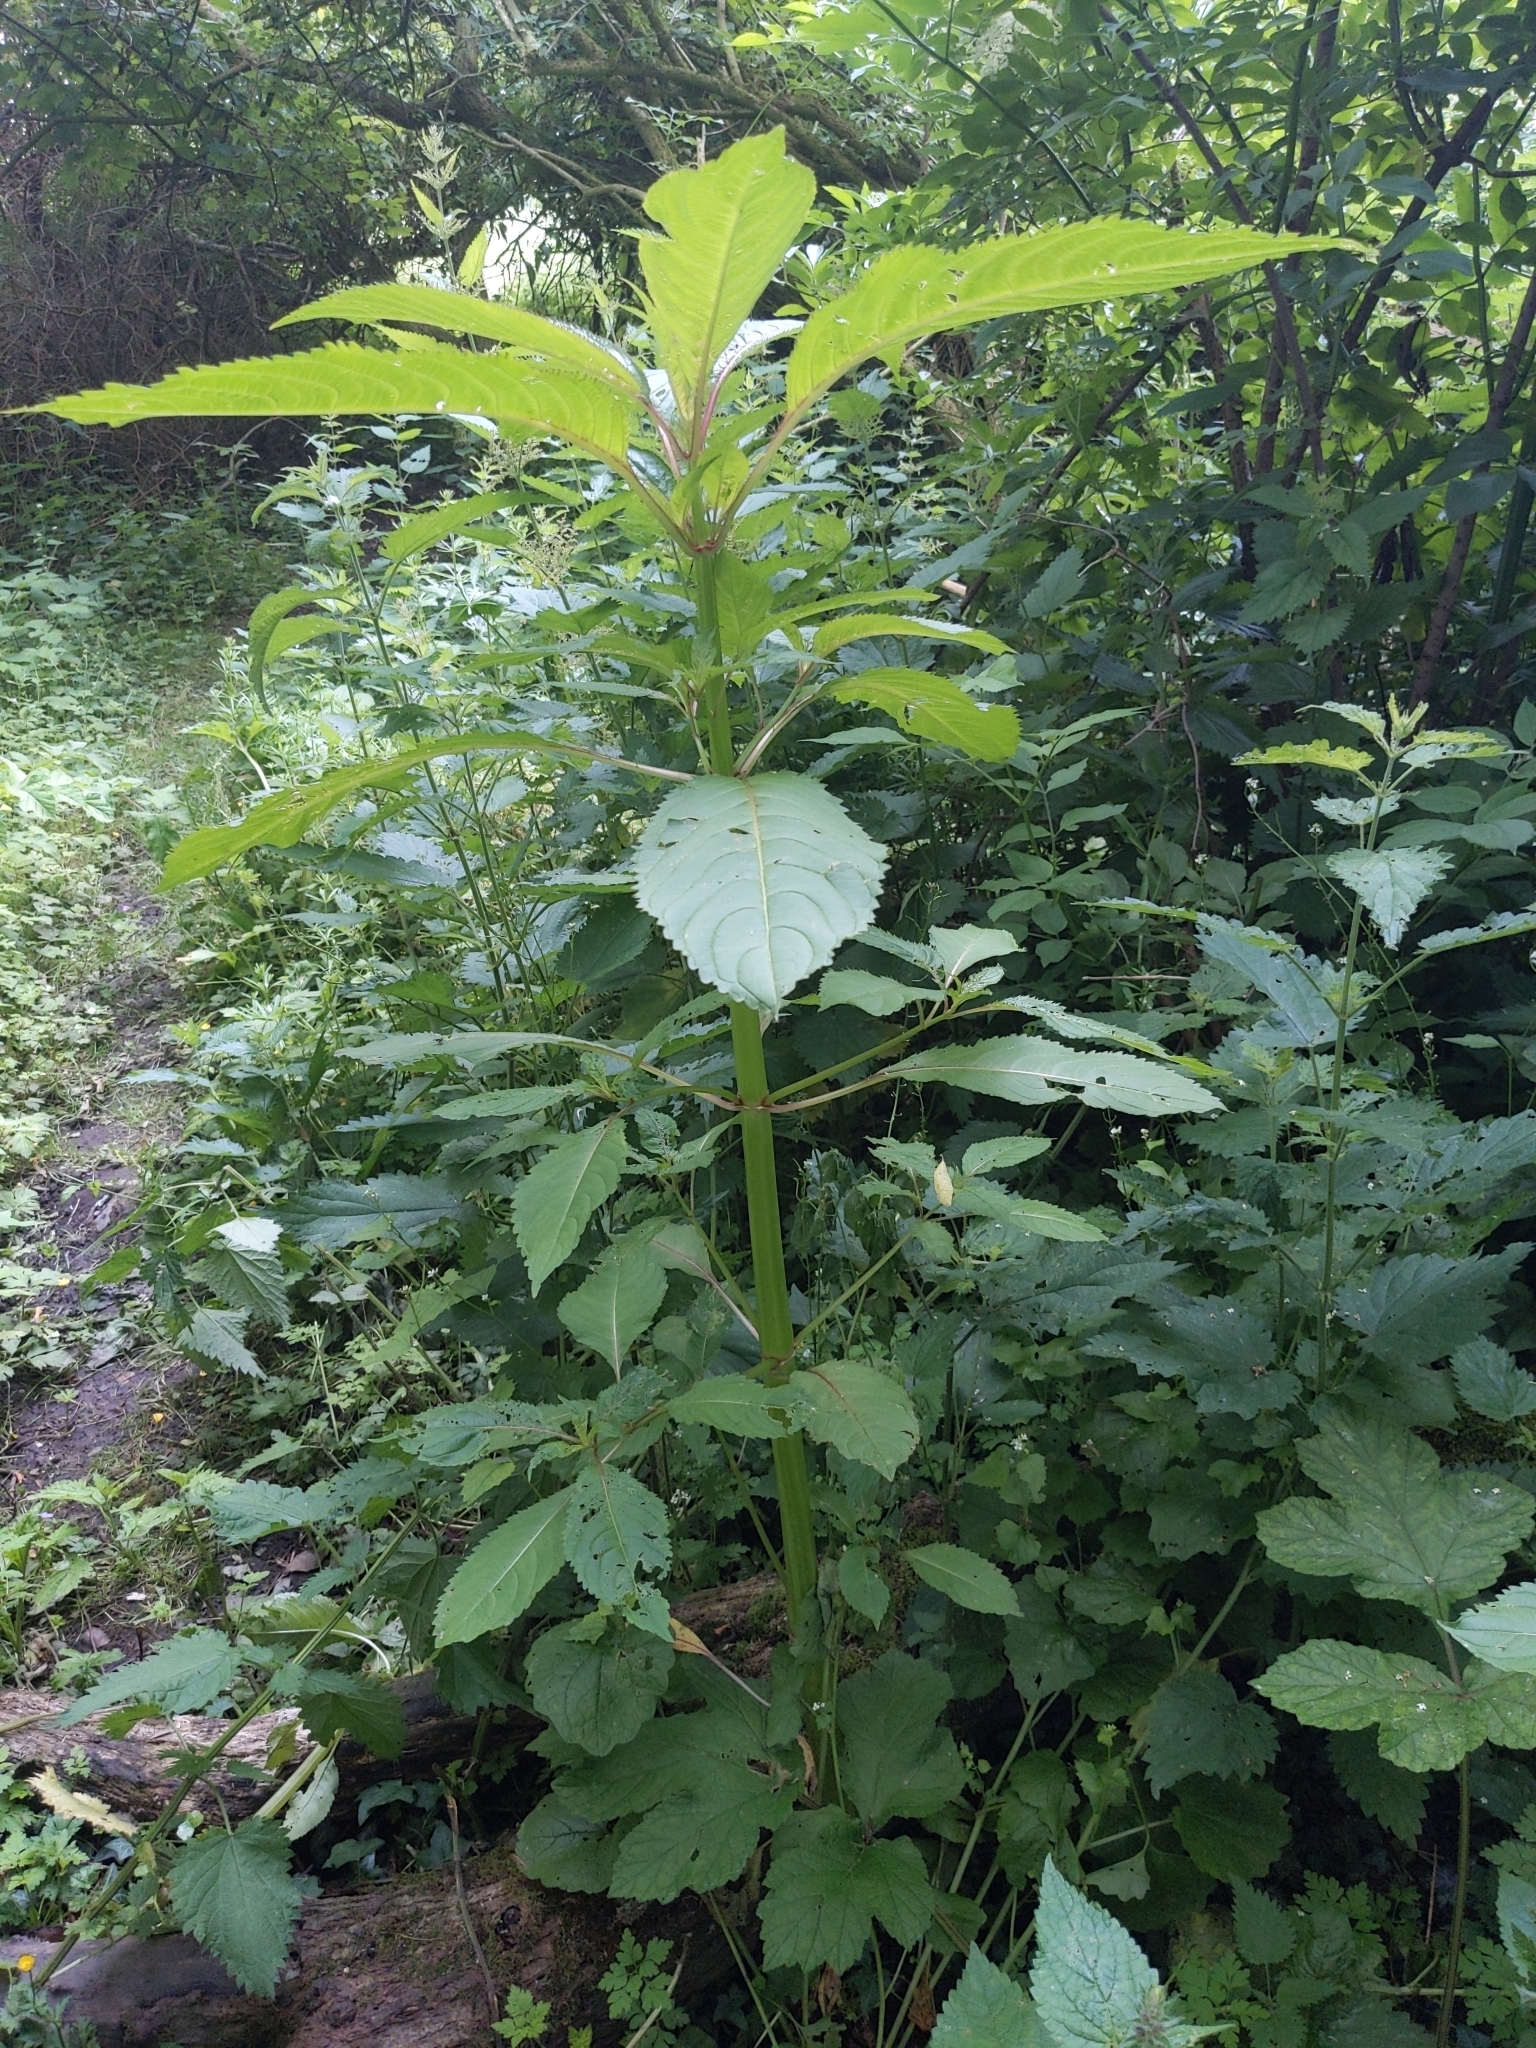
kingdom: Plantae
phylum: Tracheophyta
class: Magnoliopsida
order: Ericales
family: Balsaminaceae
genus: Impatiens
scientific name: Impatiens glandulifera
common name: Himalayan balsam
